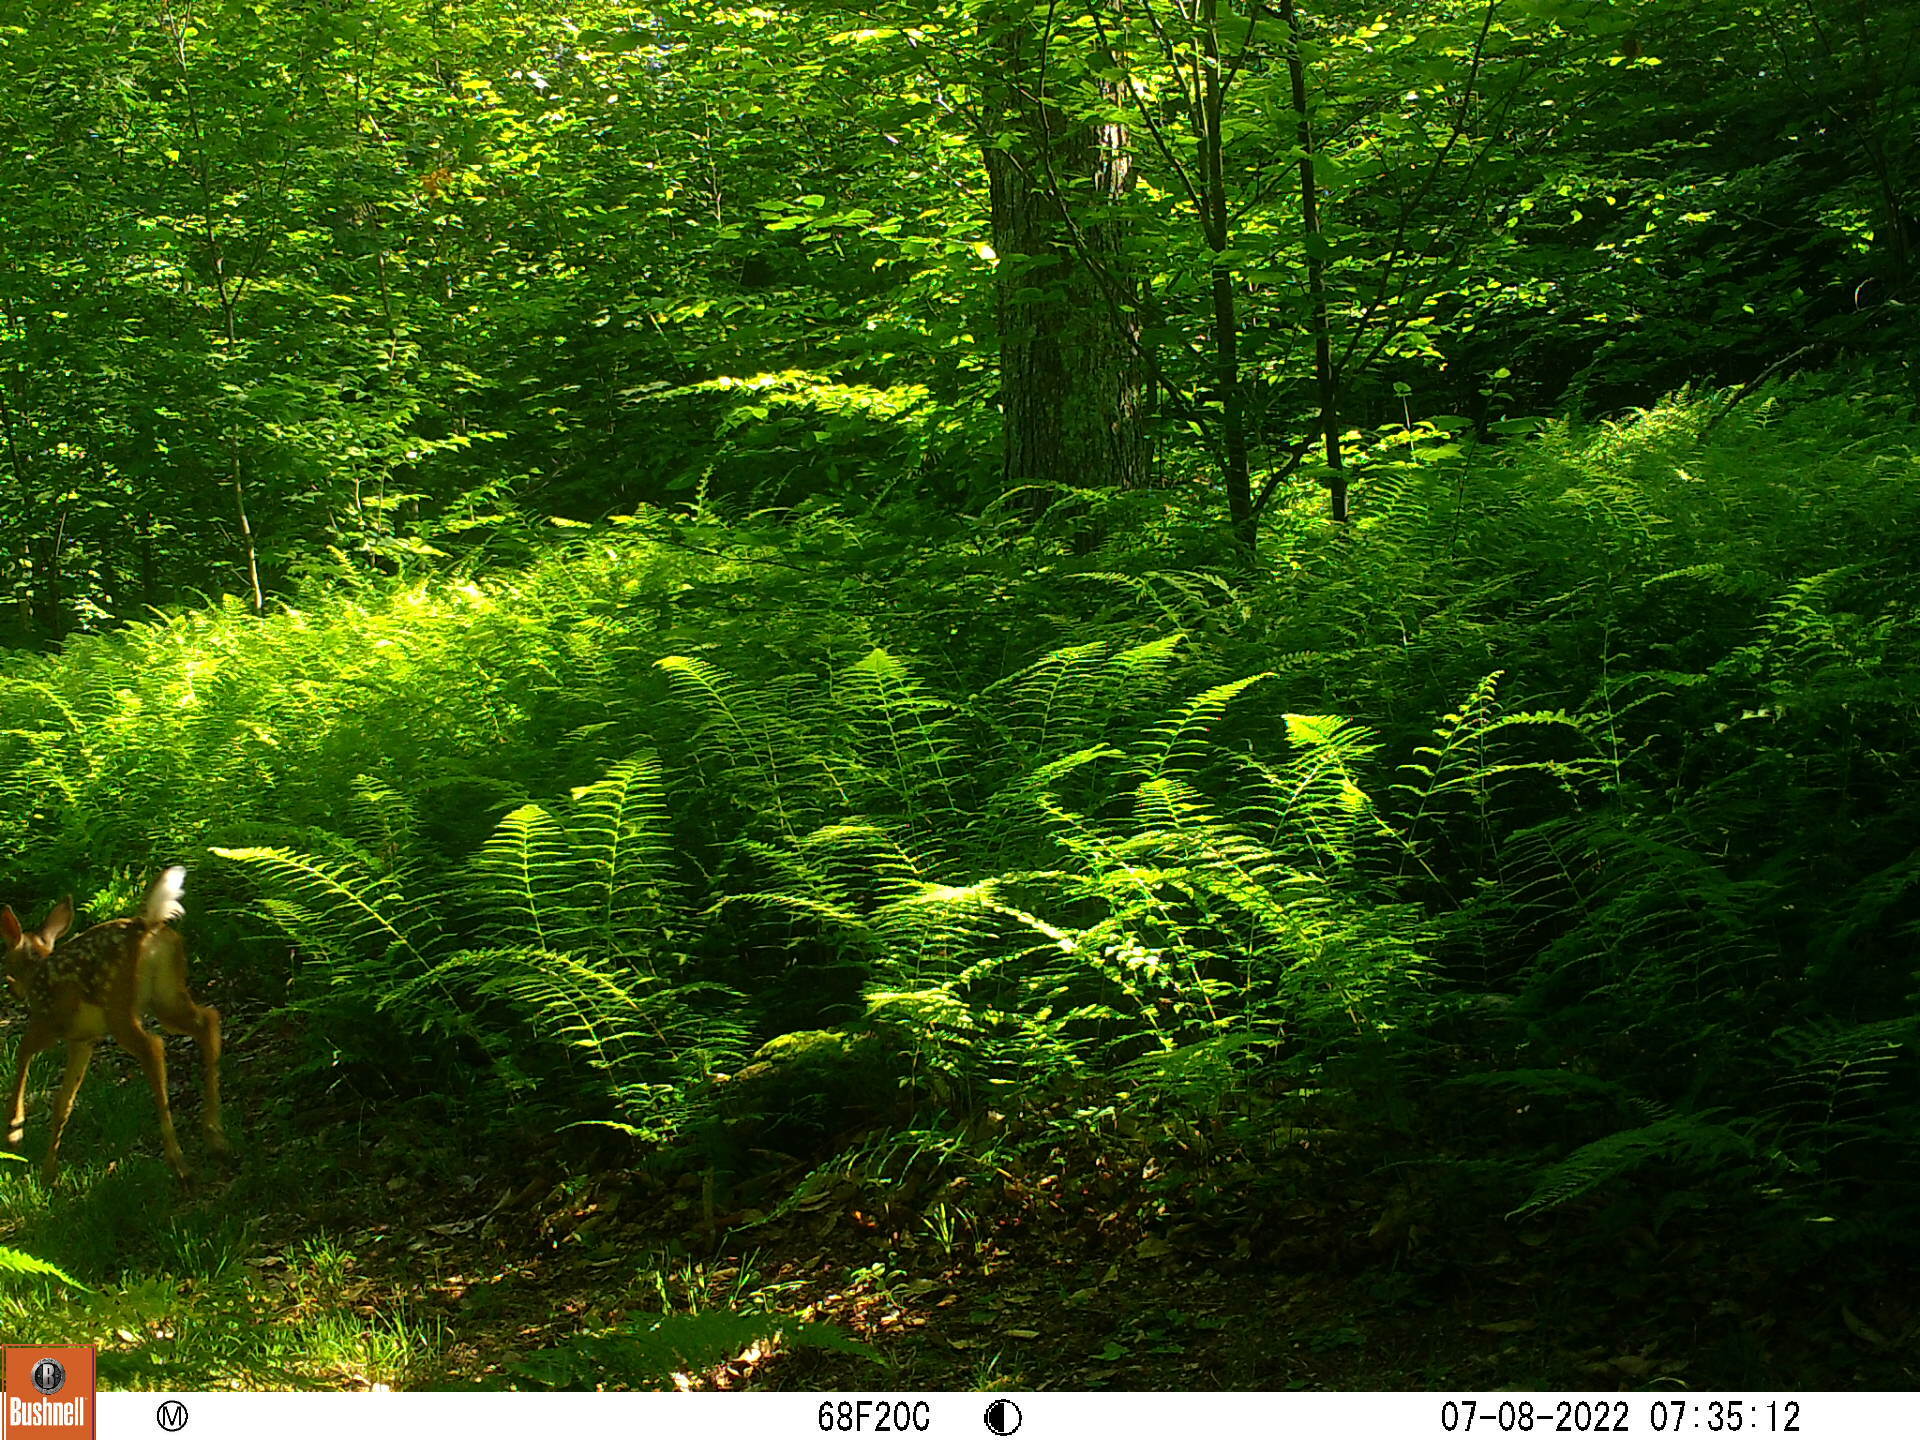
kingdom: Animalia
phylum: Chordata
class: Mammalia
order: Artiodactyla
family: Cervidae
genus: Odocoileus
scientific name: Odocoileus virginianus
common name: White-tailed deer
